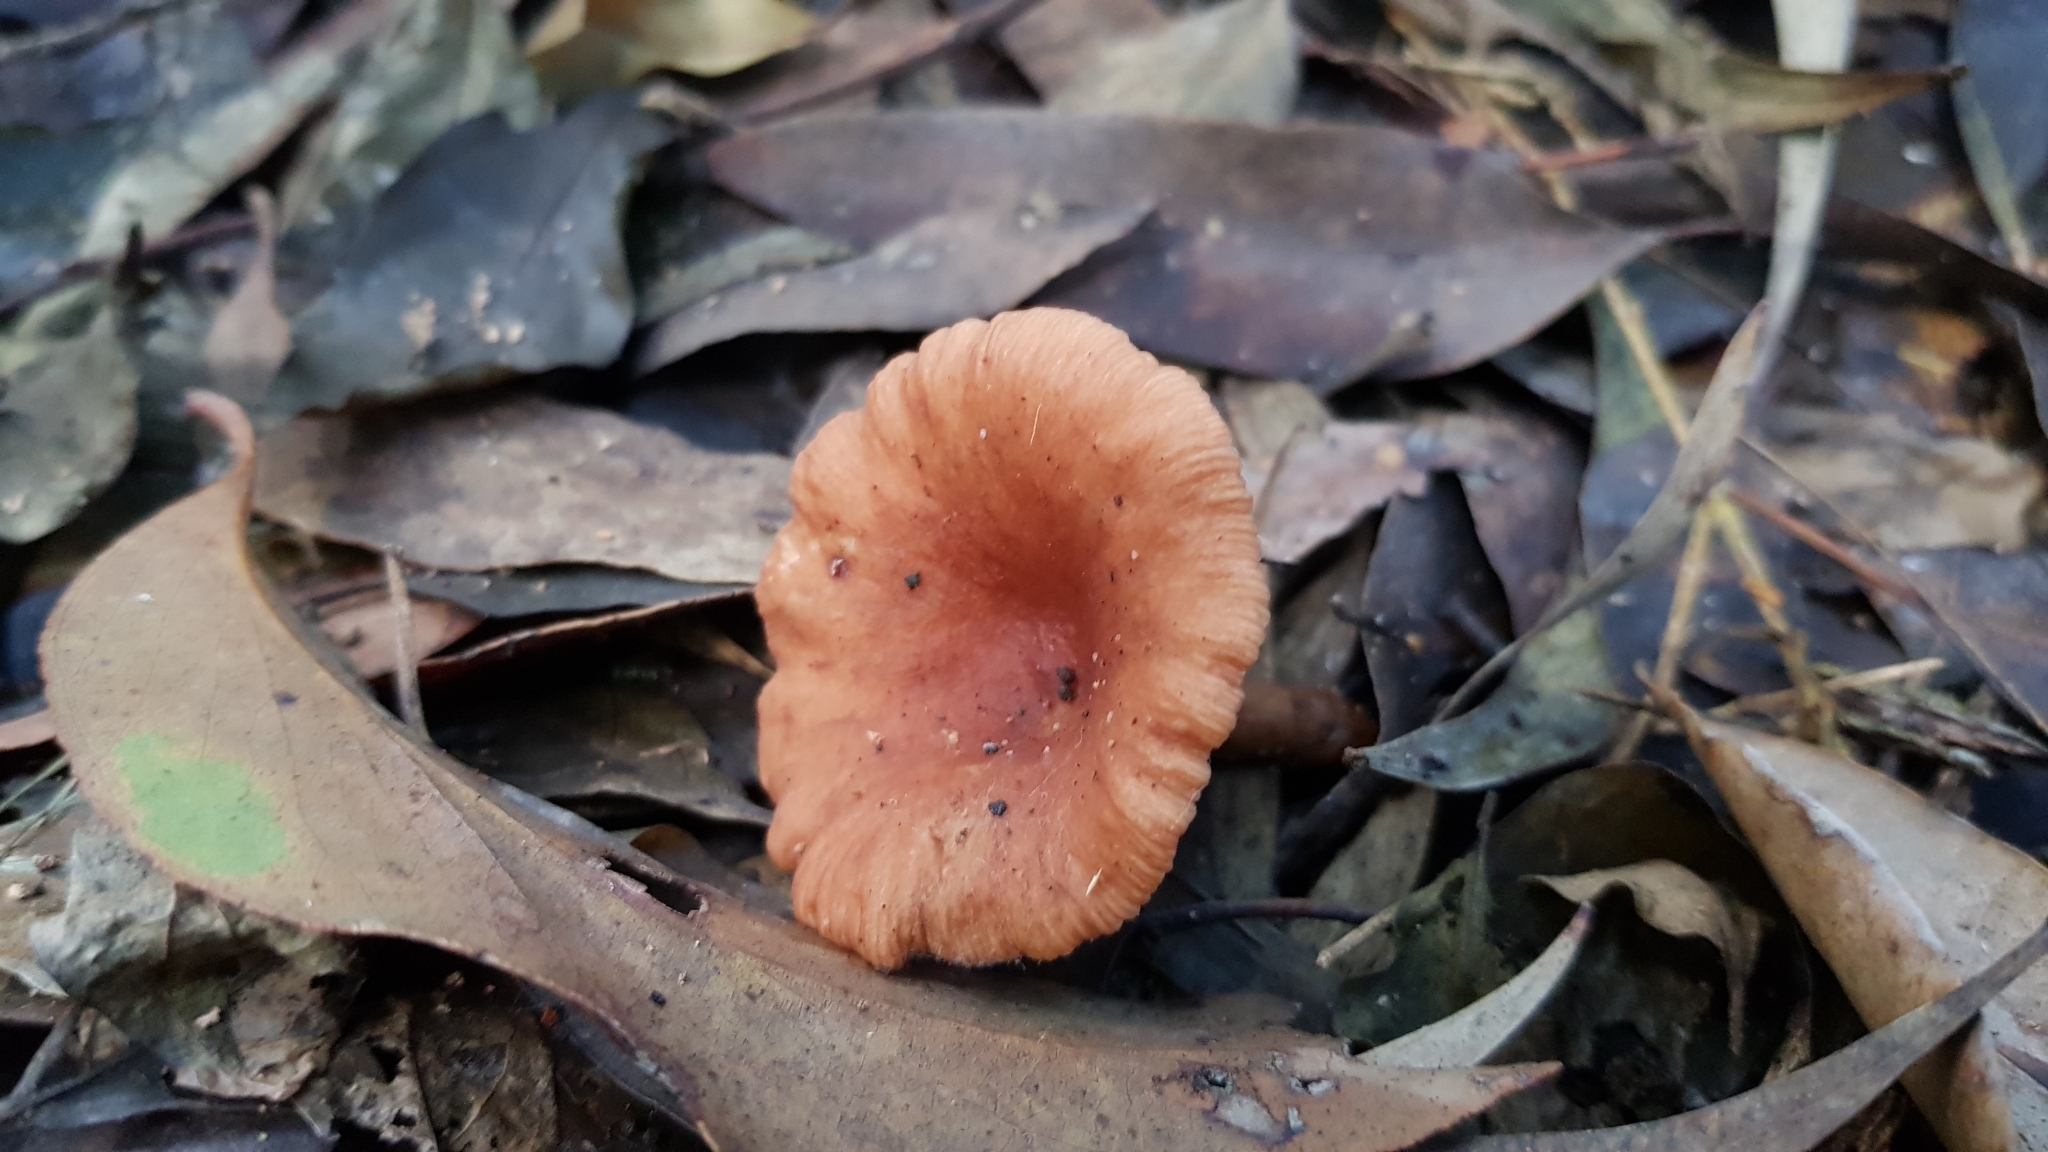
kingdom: Fungi
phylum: Basidiomycota
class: Agaricomycetes
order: Russulales
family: Russulaceae
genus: Lactarius
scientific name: Lactarius eucalypti
